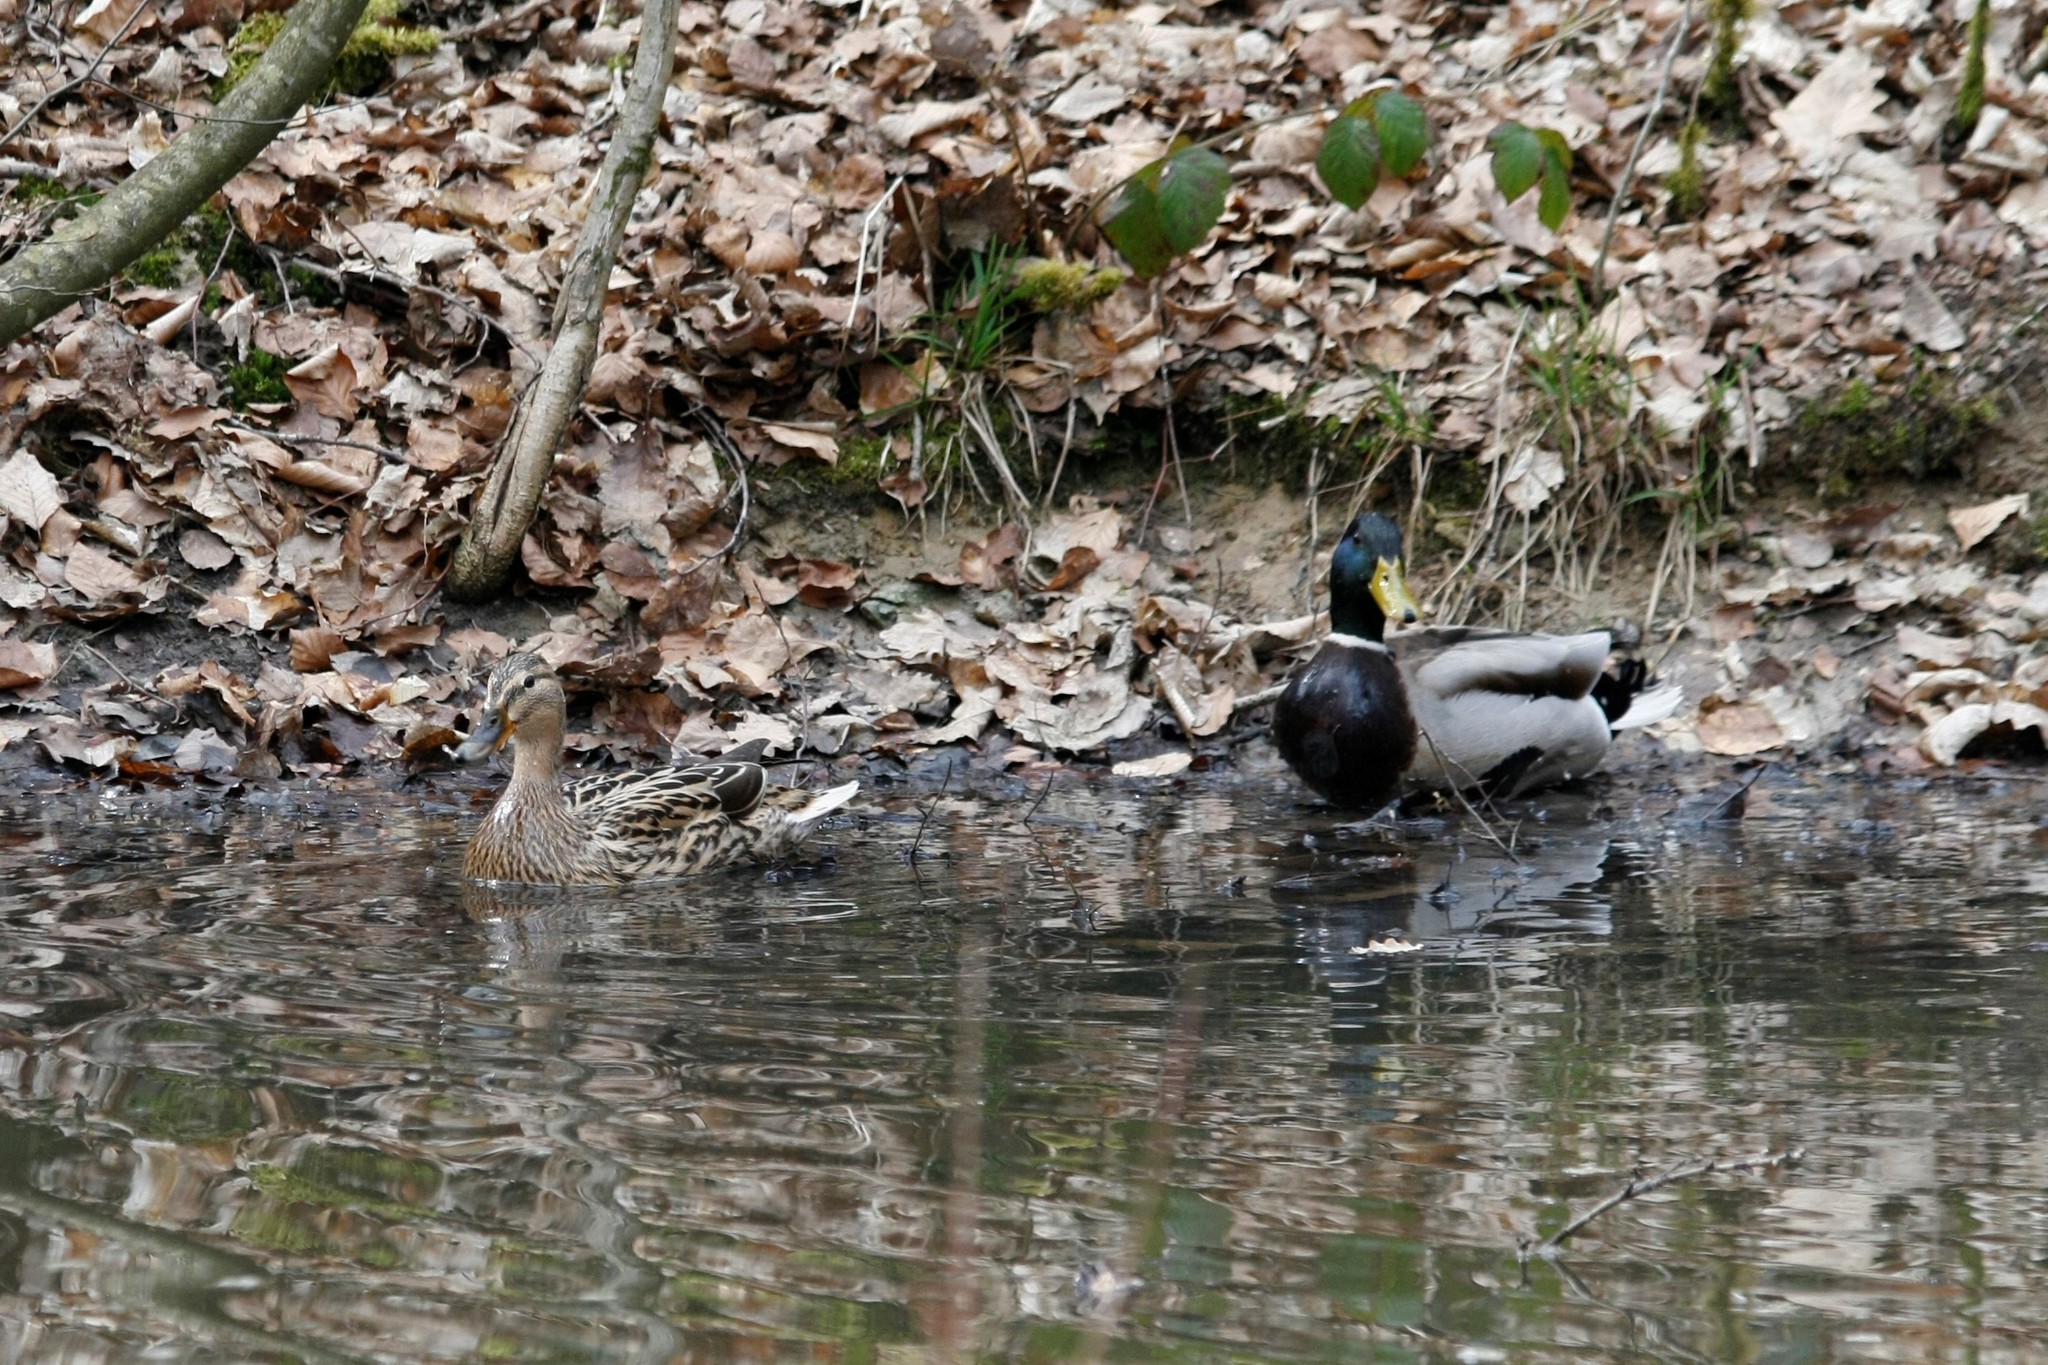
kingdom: Animalia
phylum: Chordata
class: Aves
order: Anseriformes
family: Anatidae
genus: Anas
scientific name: Anas platyrhynchos
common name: Mallard
